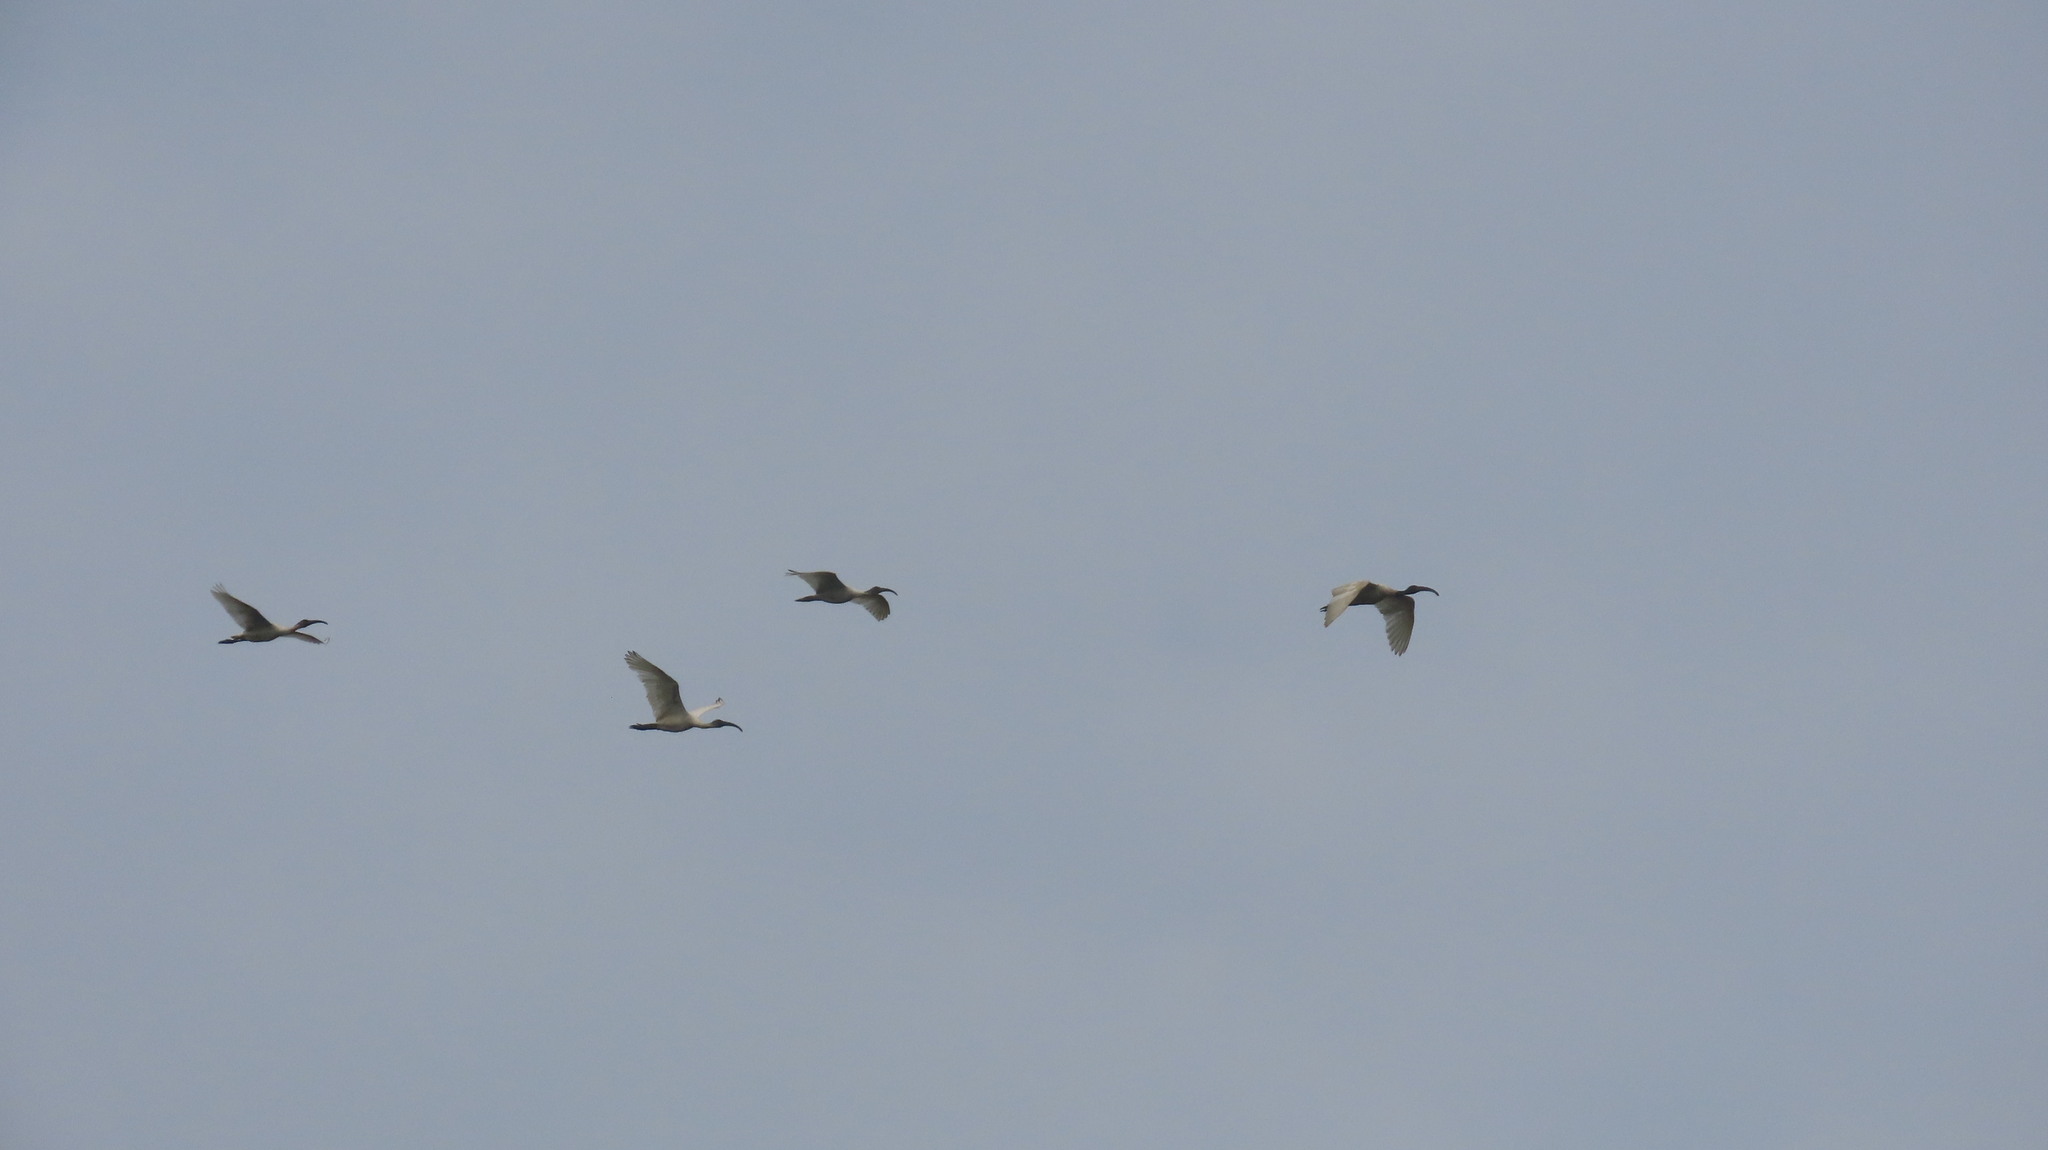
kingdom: Animalia
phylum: Chordata
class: Aves
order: Pelecaniformes
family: Threskiornithidae
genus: Threskiornis
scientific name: Threskiornis melanocephalus
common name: Black-headed ibis
